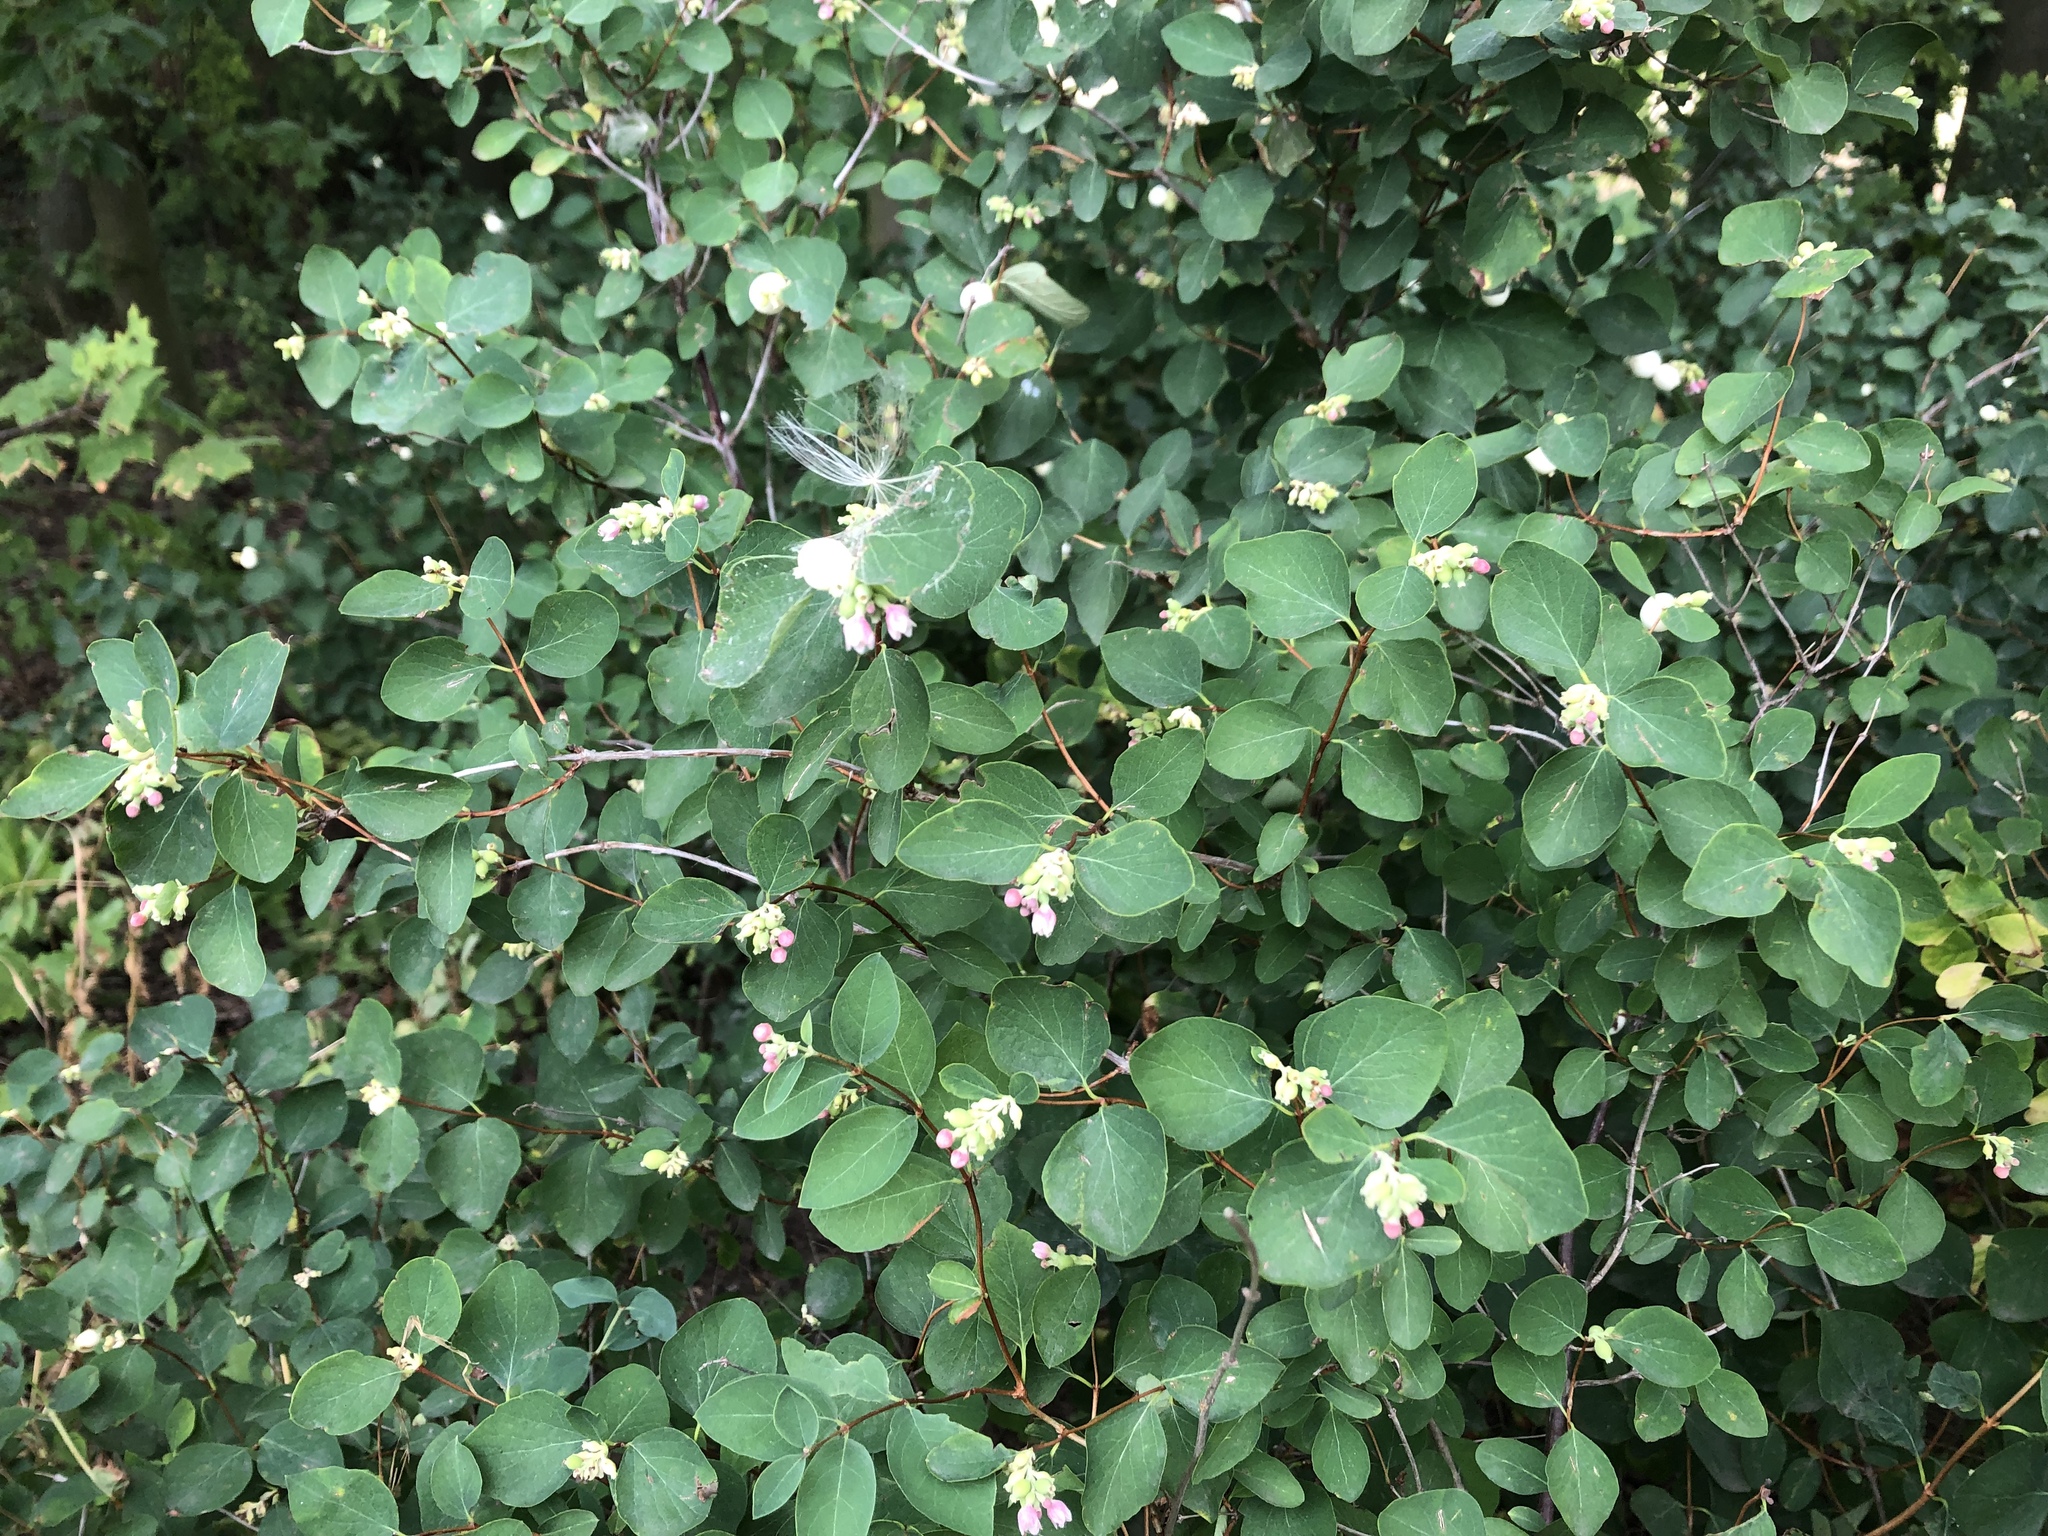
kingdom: Plantae
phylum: Tracheophyta
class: Magnoliopsida
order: Dipsacales
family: Caprifoliaceae
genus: Symphoricarpos
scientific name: Symphoricarpos albus
